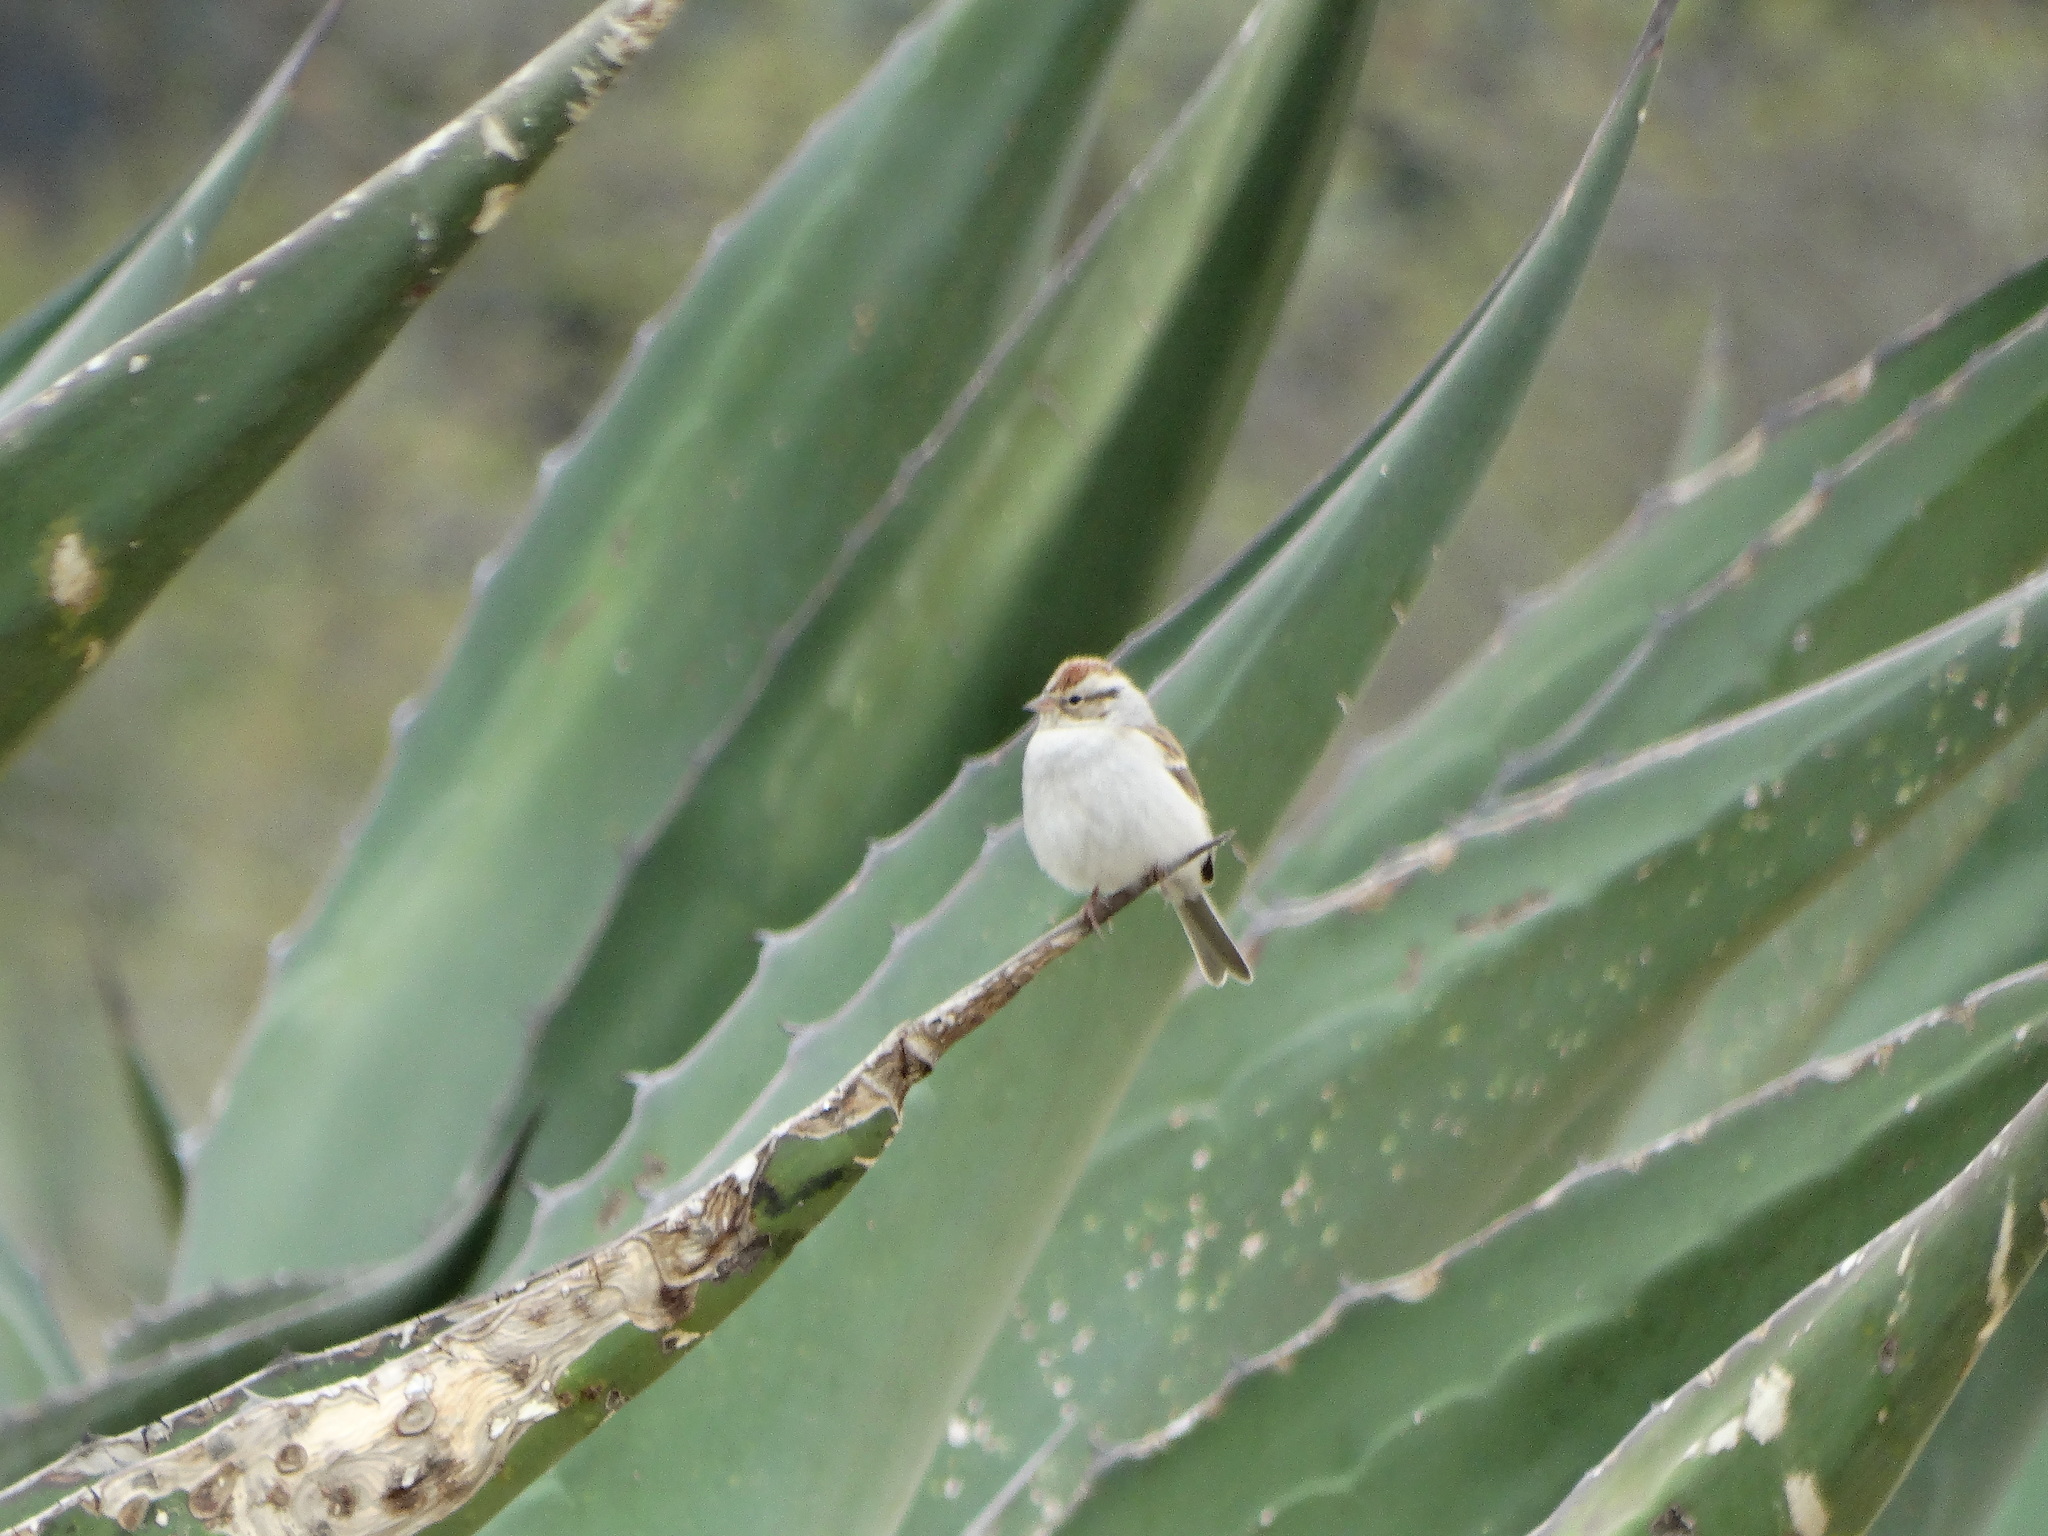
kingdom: Animalia
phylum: Chordata
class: Aves
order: Passeriformes
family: Passerellidae
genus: Spizella
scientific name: Spizella passerina
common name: Chipping sparrow
